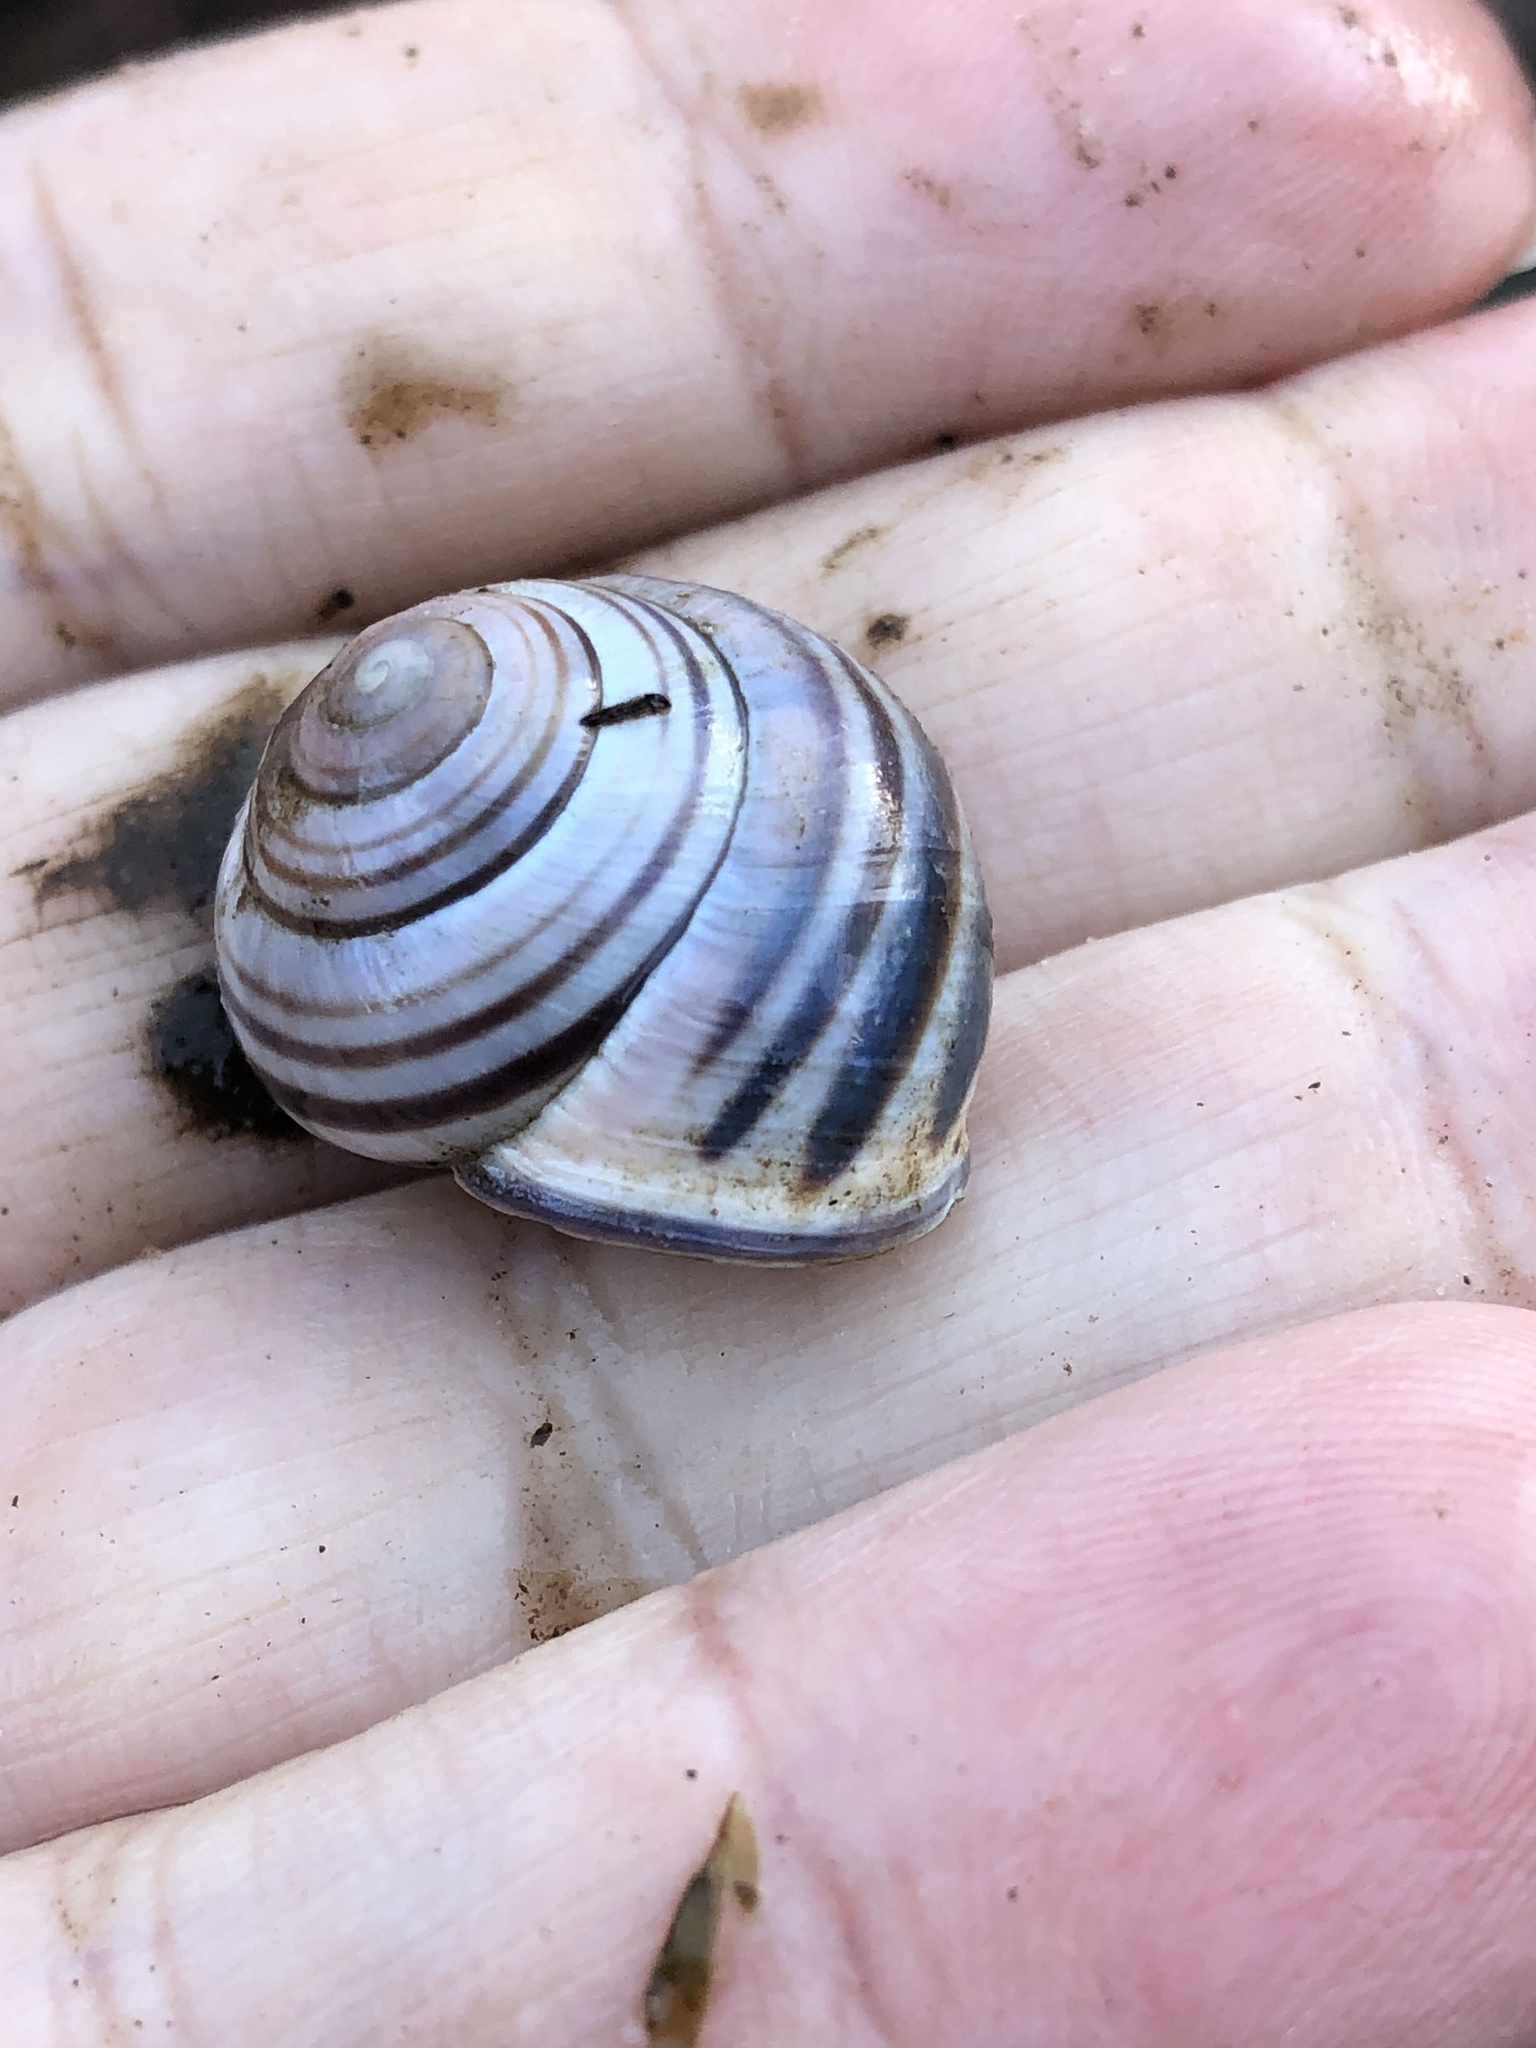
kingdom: Animalia
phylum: Mollusca
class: Gastropoda
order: Stylommatophora
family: Helicidae
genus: Cepaea
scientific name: Cepaea nemoralis
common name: Grovesnail
